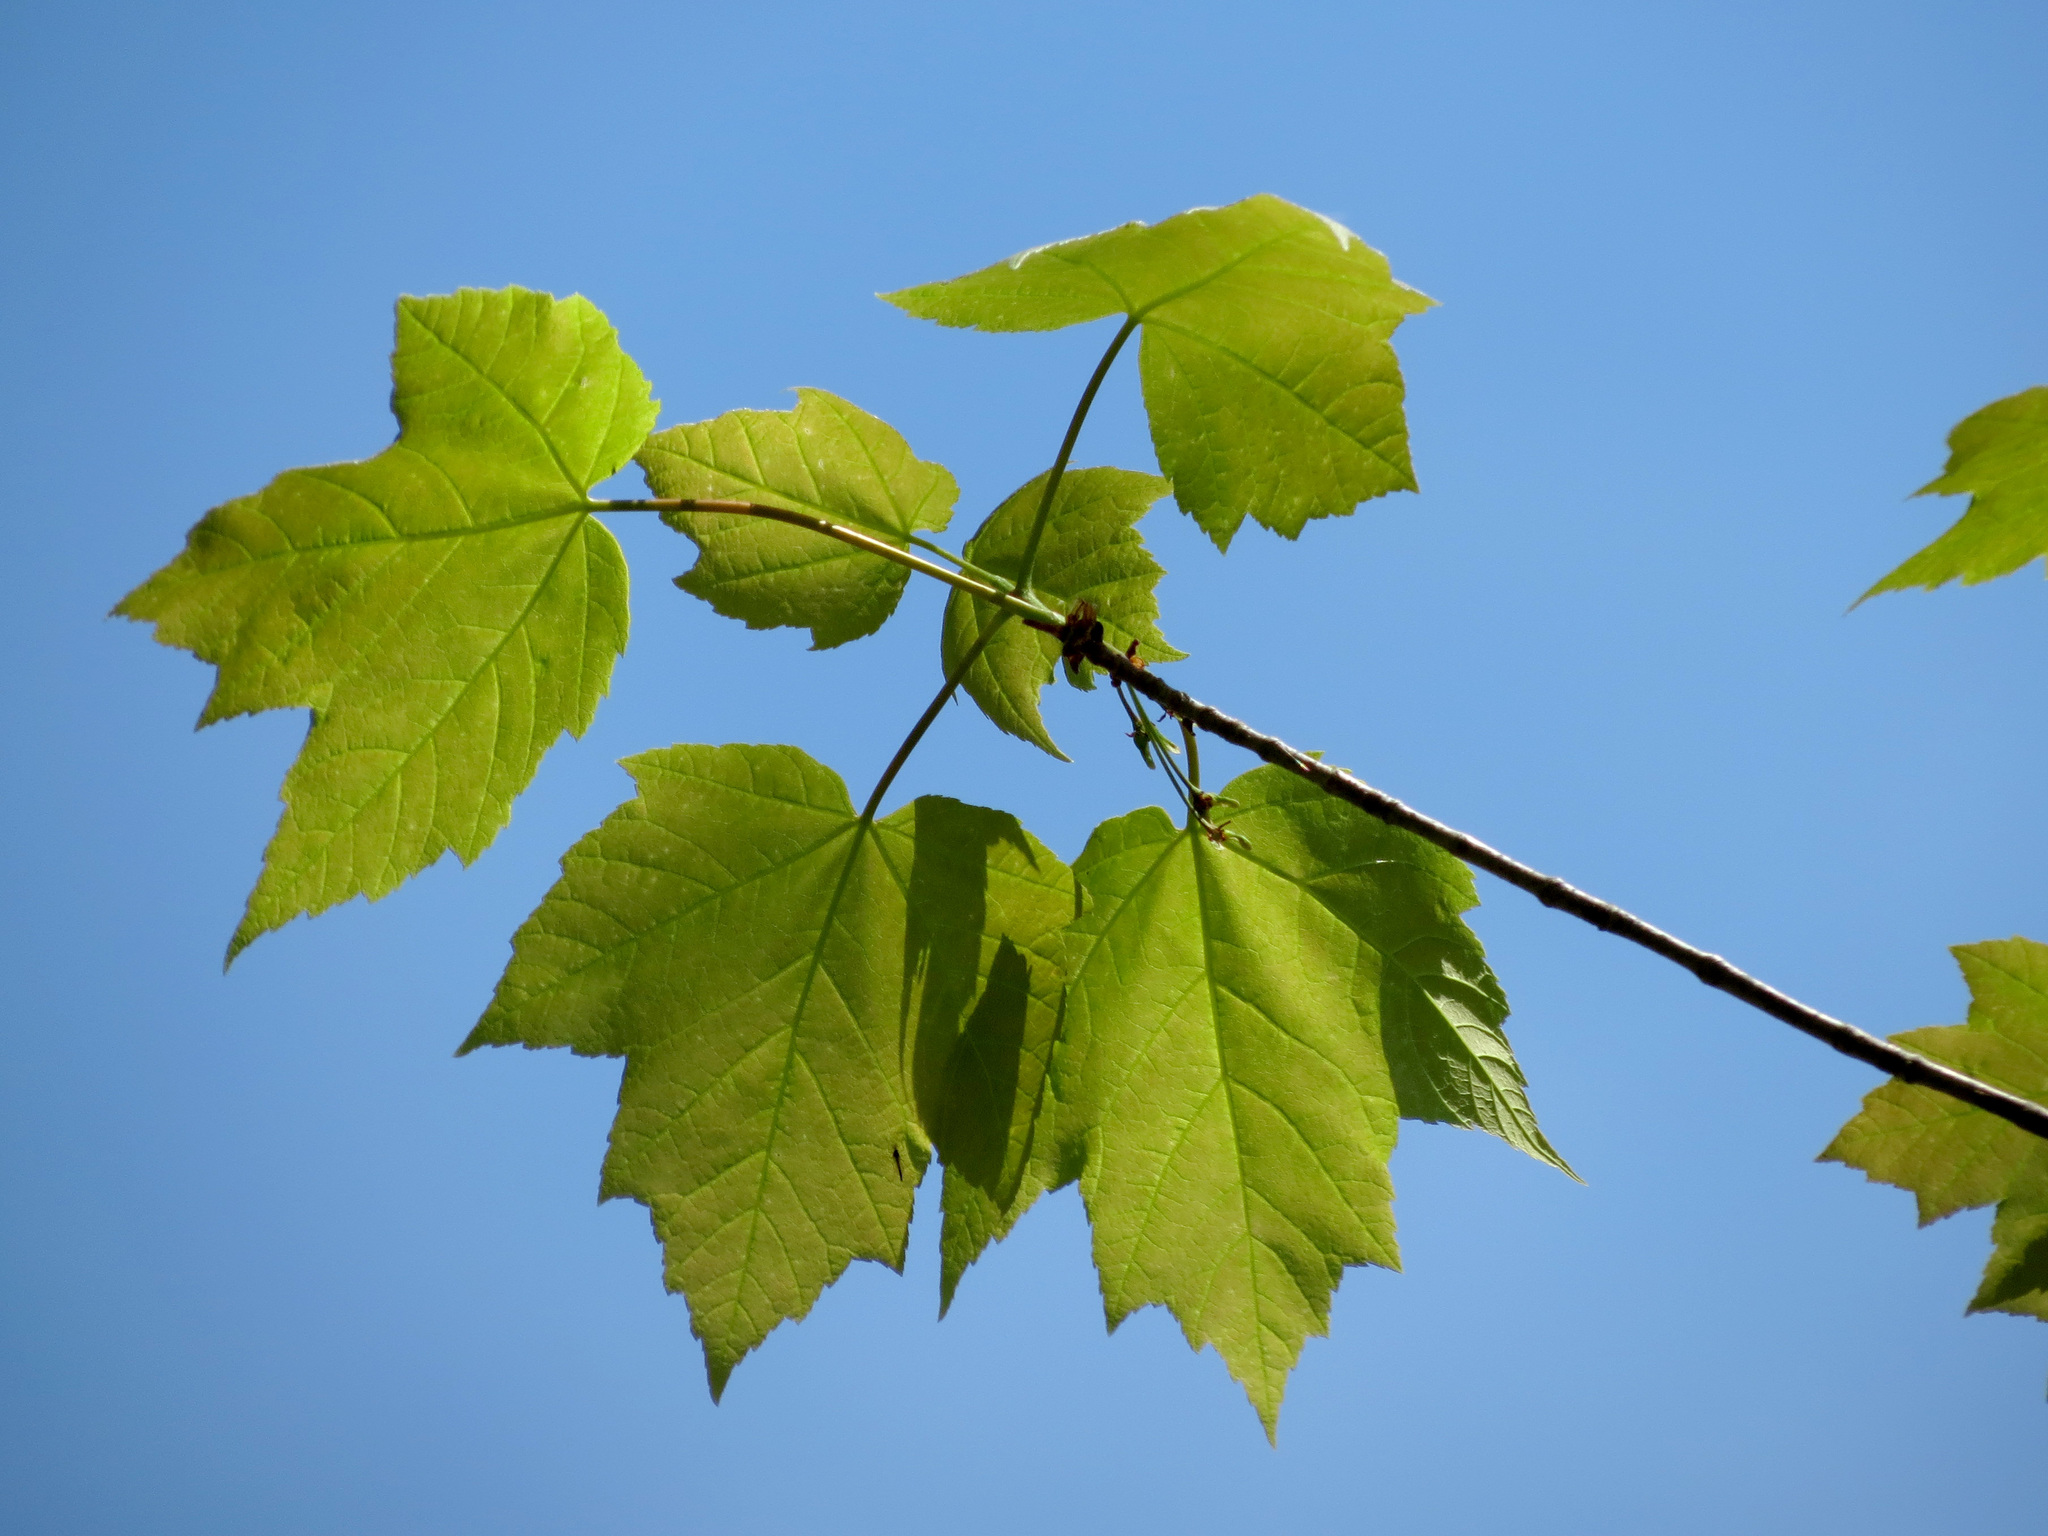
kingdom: Plantae
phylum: Tracheophyta
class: Magnoliopsida
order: Sapindales
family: Sapindaceae
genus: Acer
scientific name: Acer rubrum
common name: Red maple
